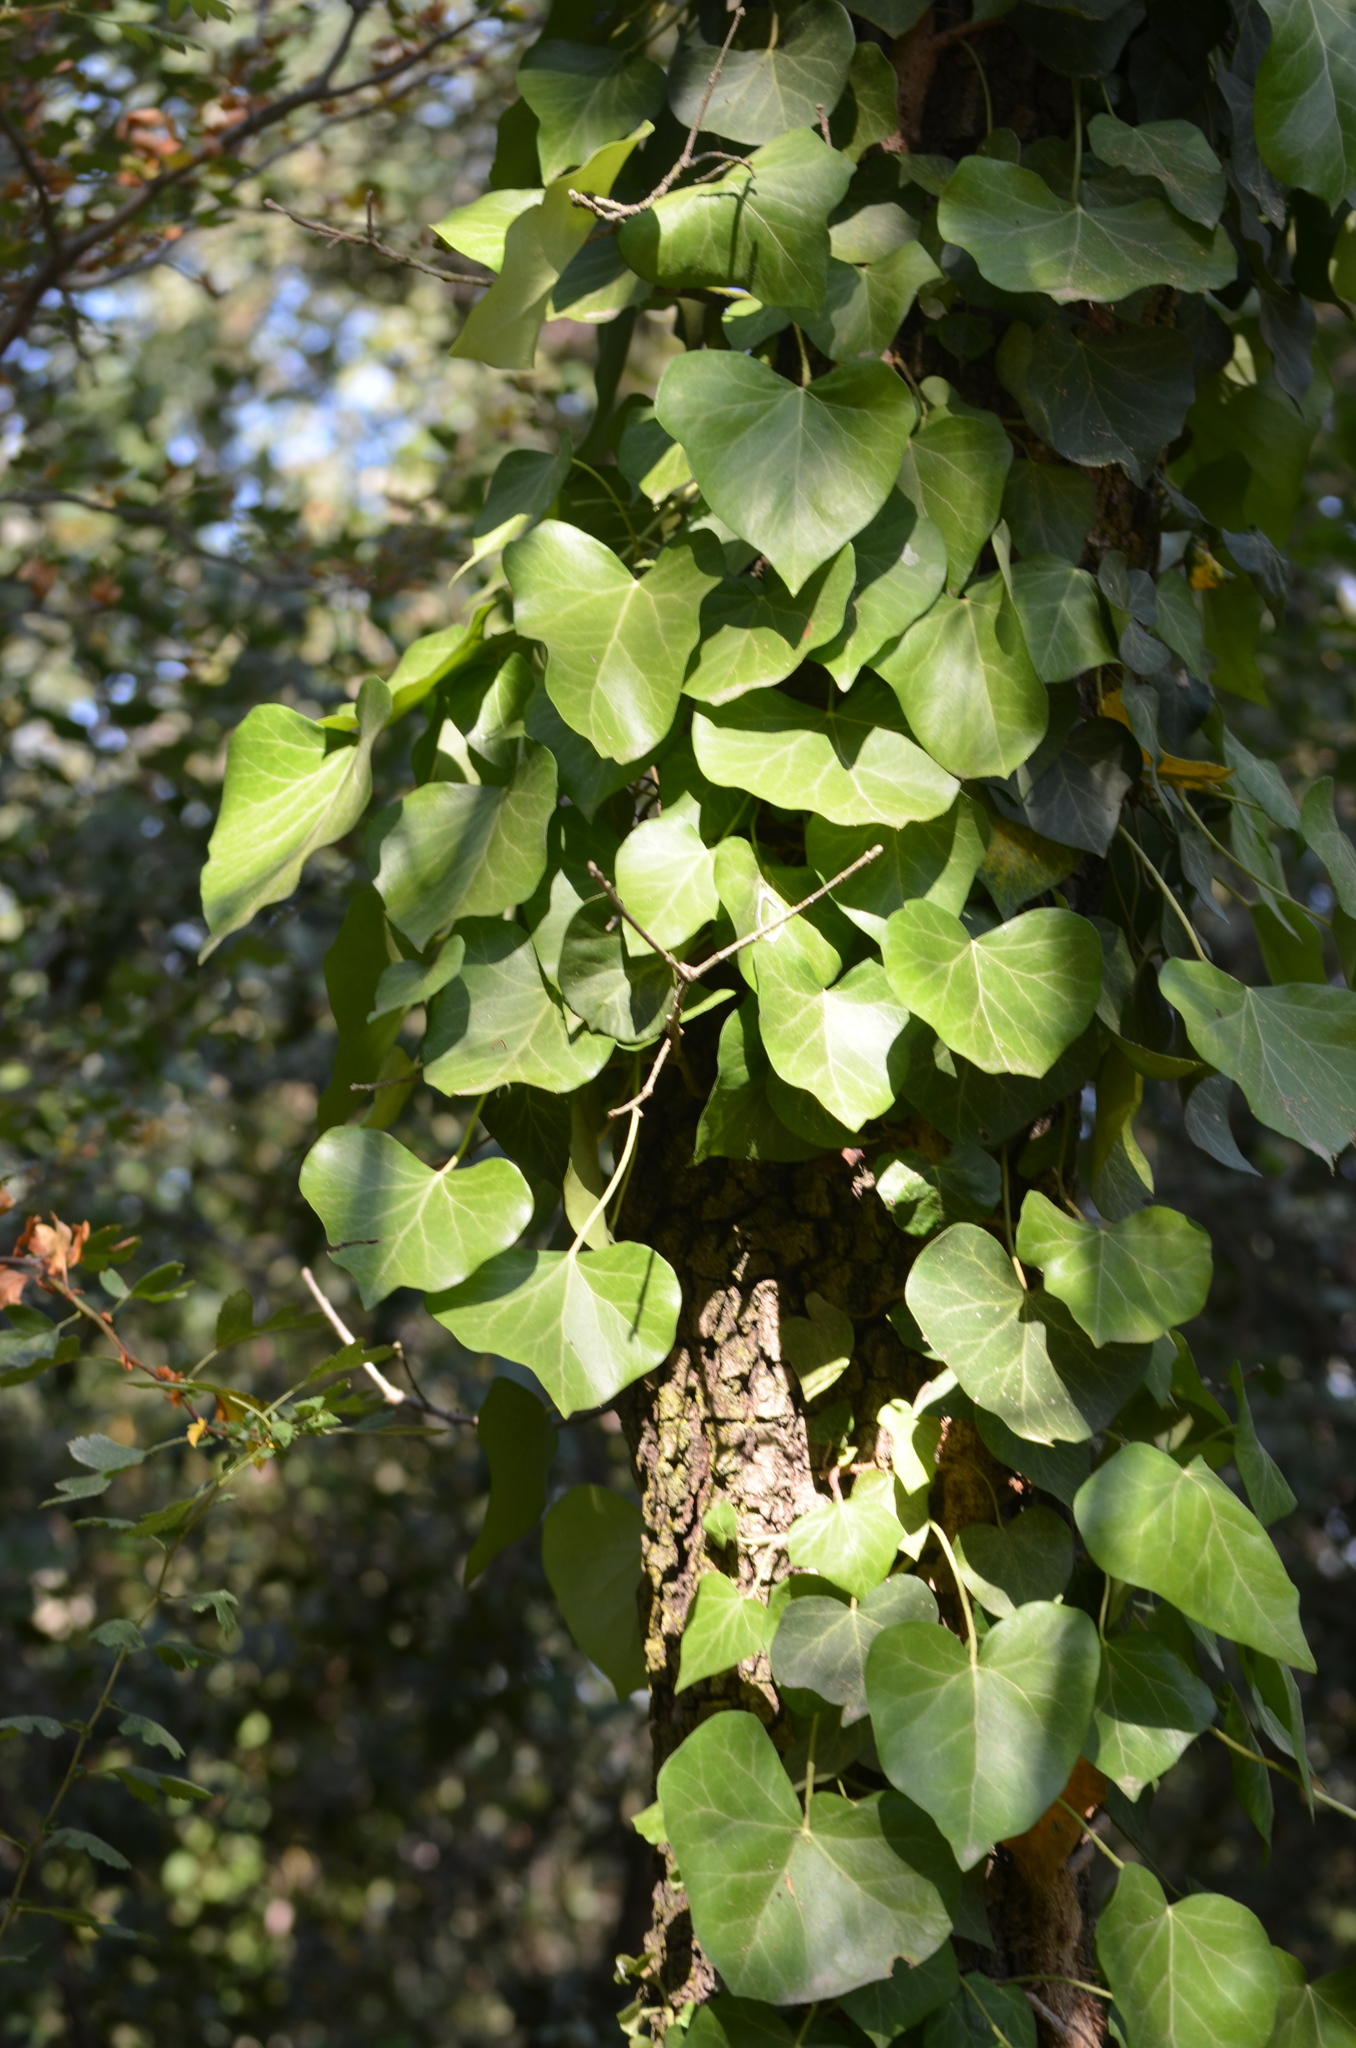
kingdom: Plantae
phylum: Tracheophyta
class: Magnoliopsida
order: Apiales
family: Araliaceae
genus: Hedera
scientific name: Hedera helix
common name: Ivy
